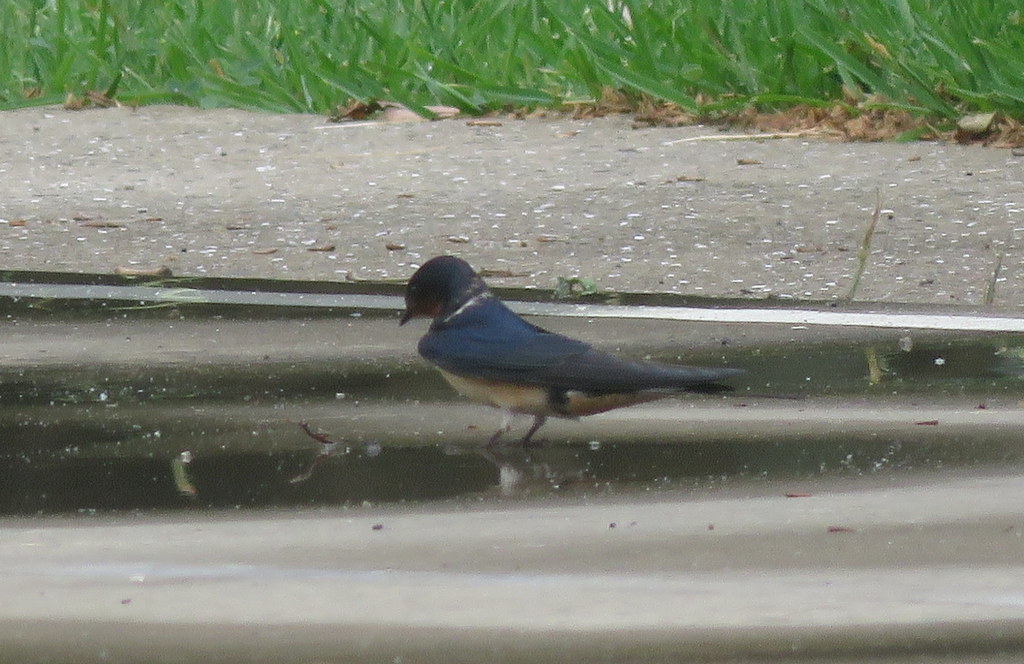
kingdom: Animalia
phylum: Chordata
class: Aves
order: Passeriformes
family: Hirundinidae
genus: Hirundo
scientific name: Hirundo rustica
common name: Barn swallow
